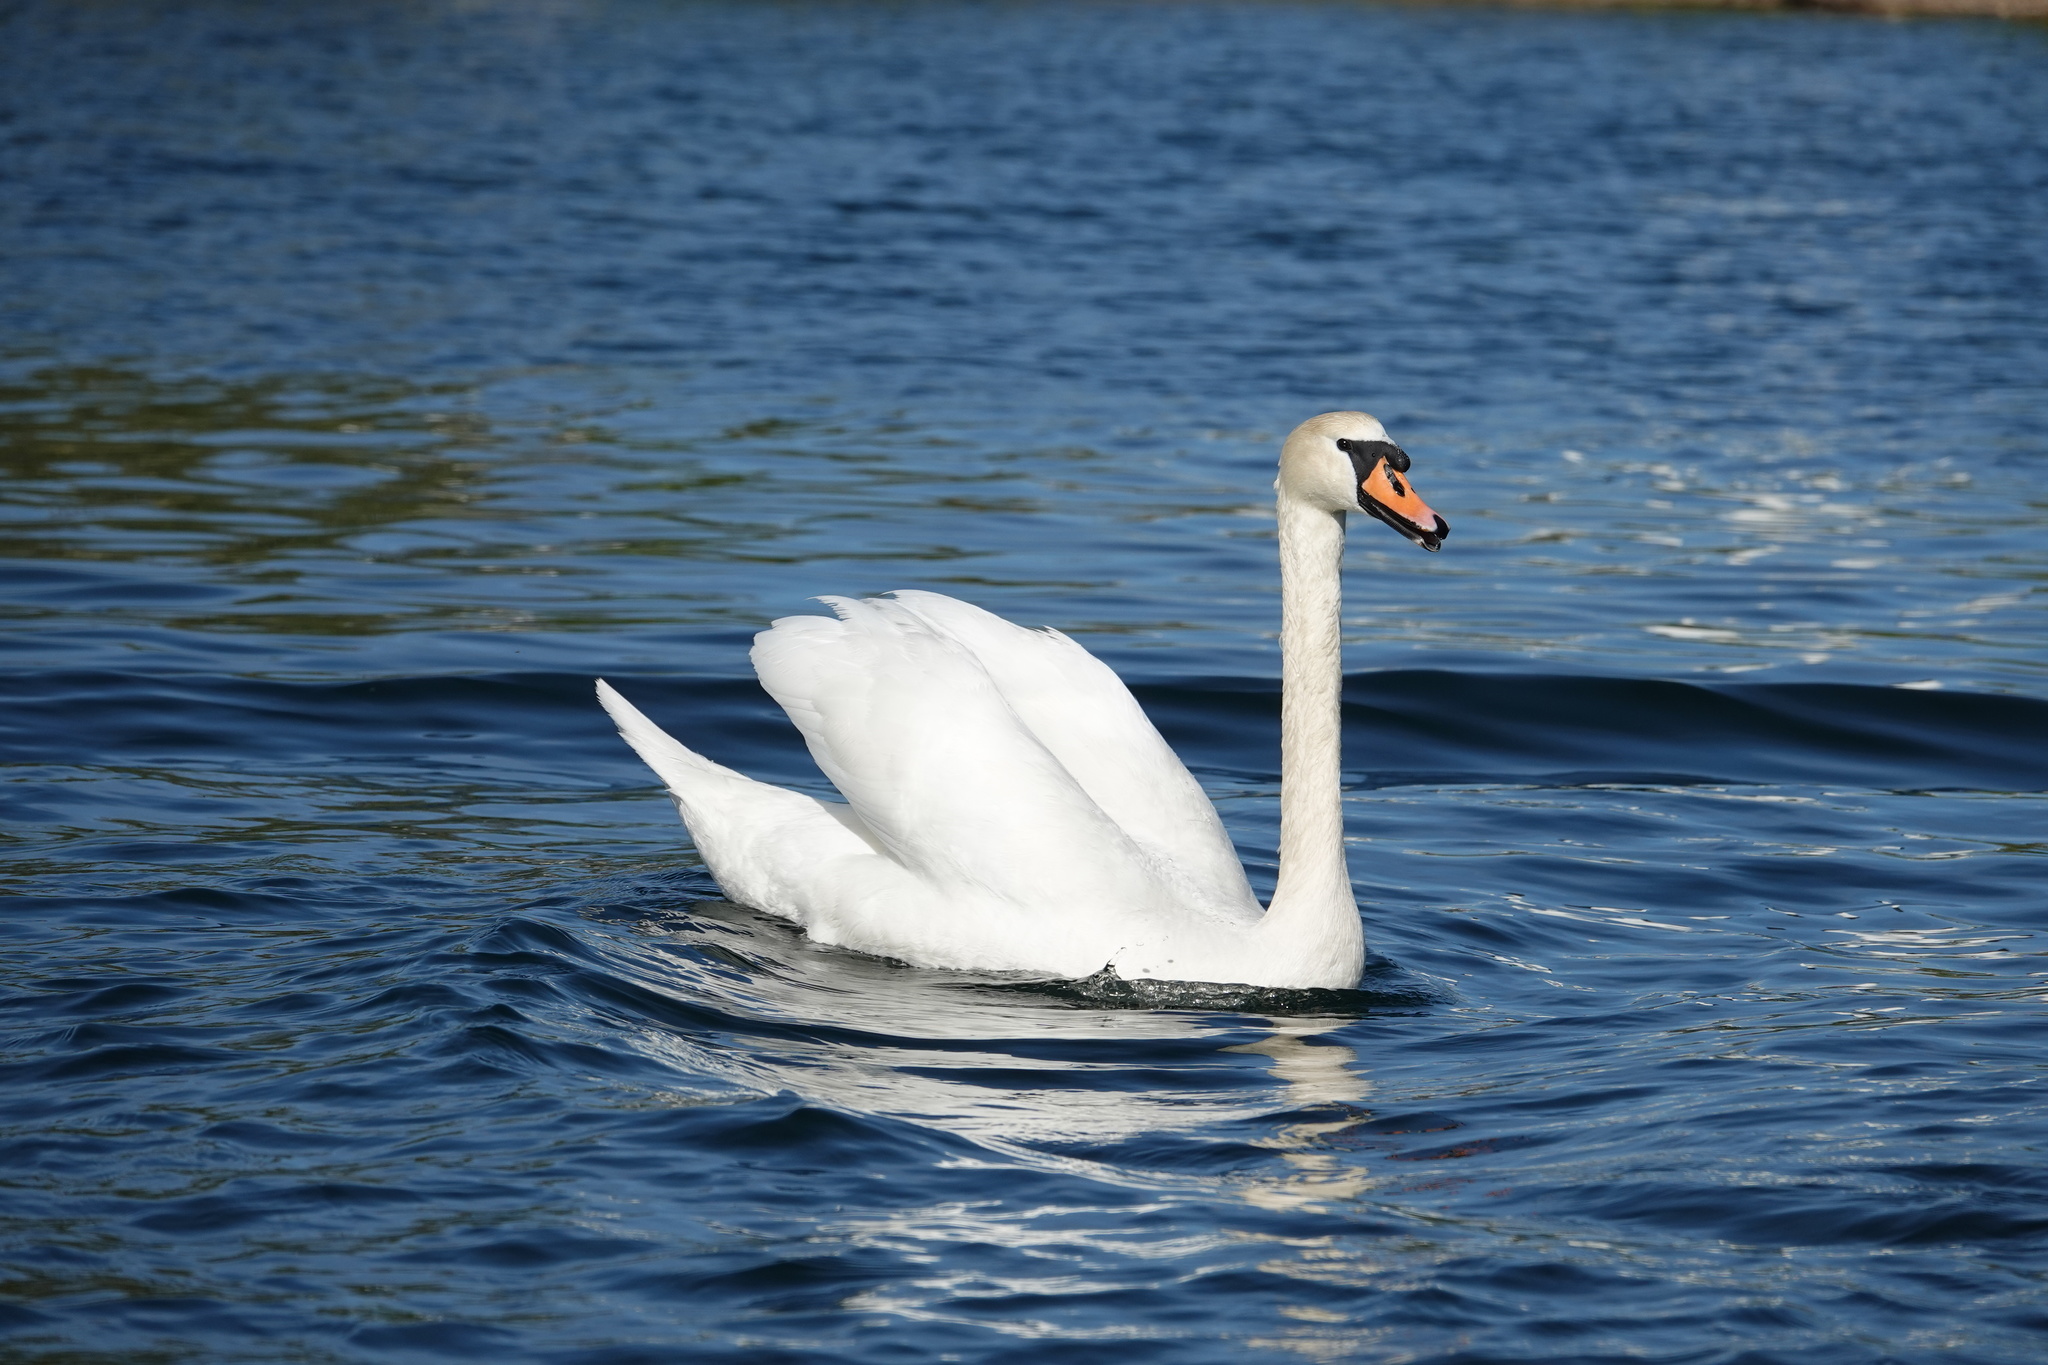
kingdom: Animalia
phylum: Chordata
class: Aves
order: Anseriformes
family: Anatidae
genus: Cygnus
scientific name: Cygnus olor
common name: Mute swan
